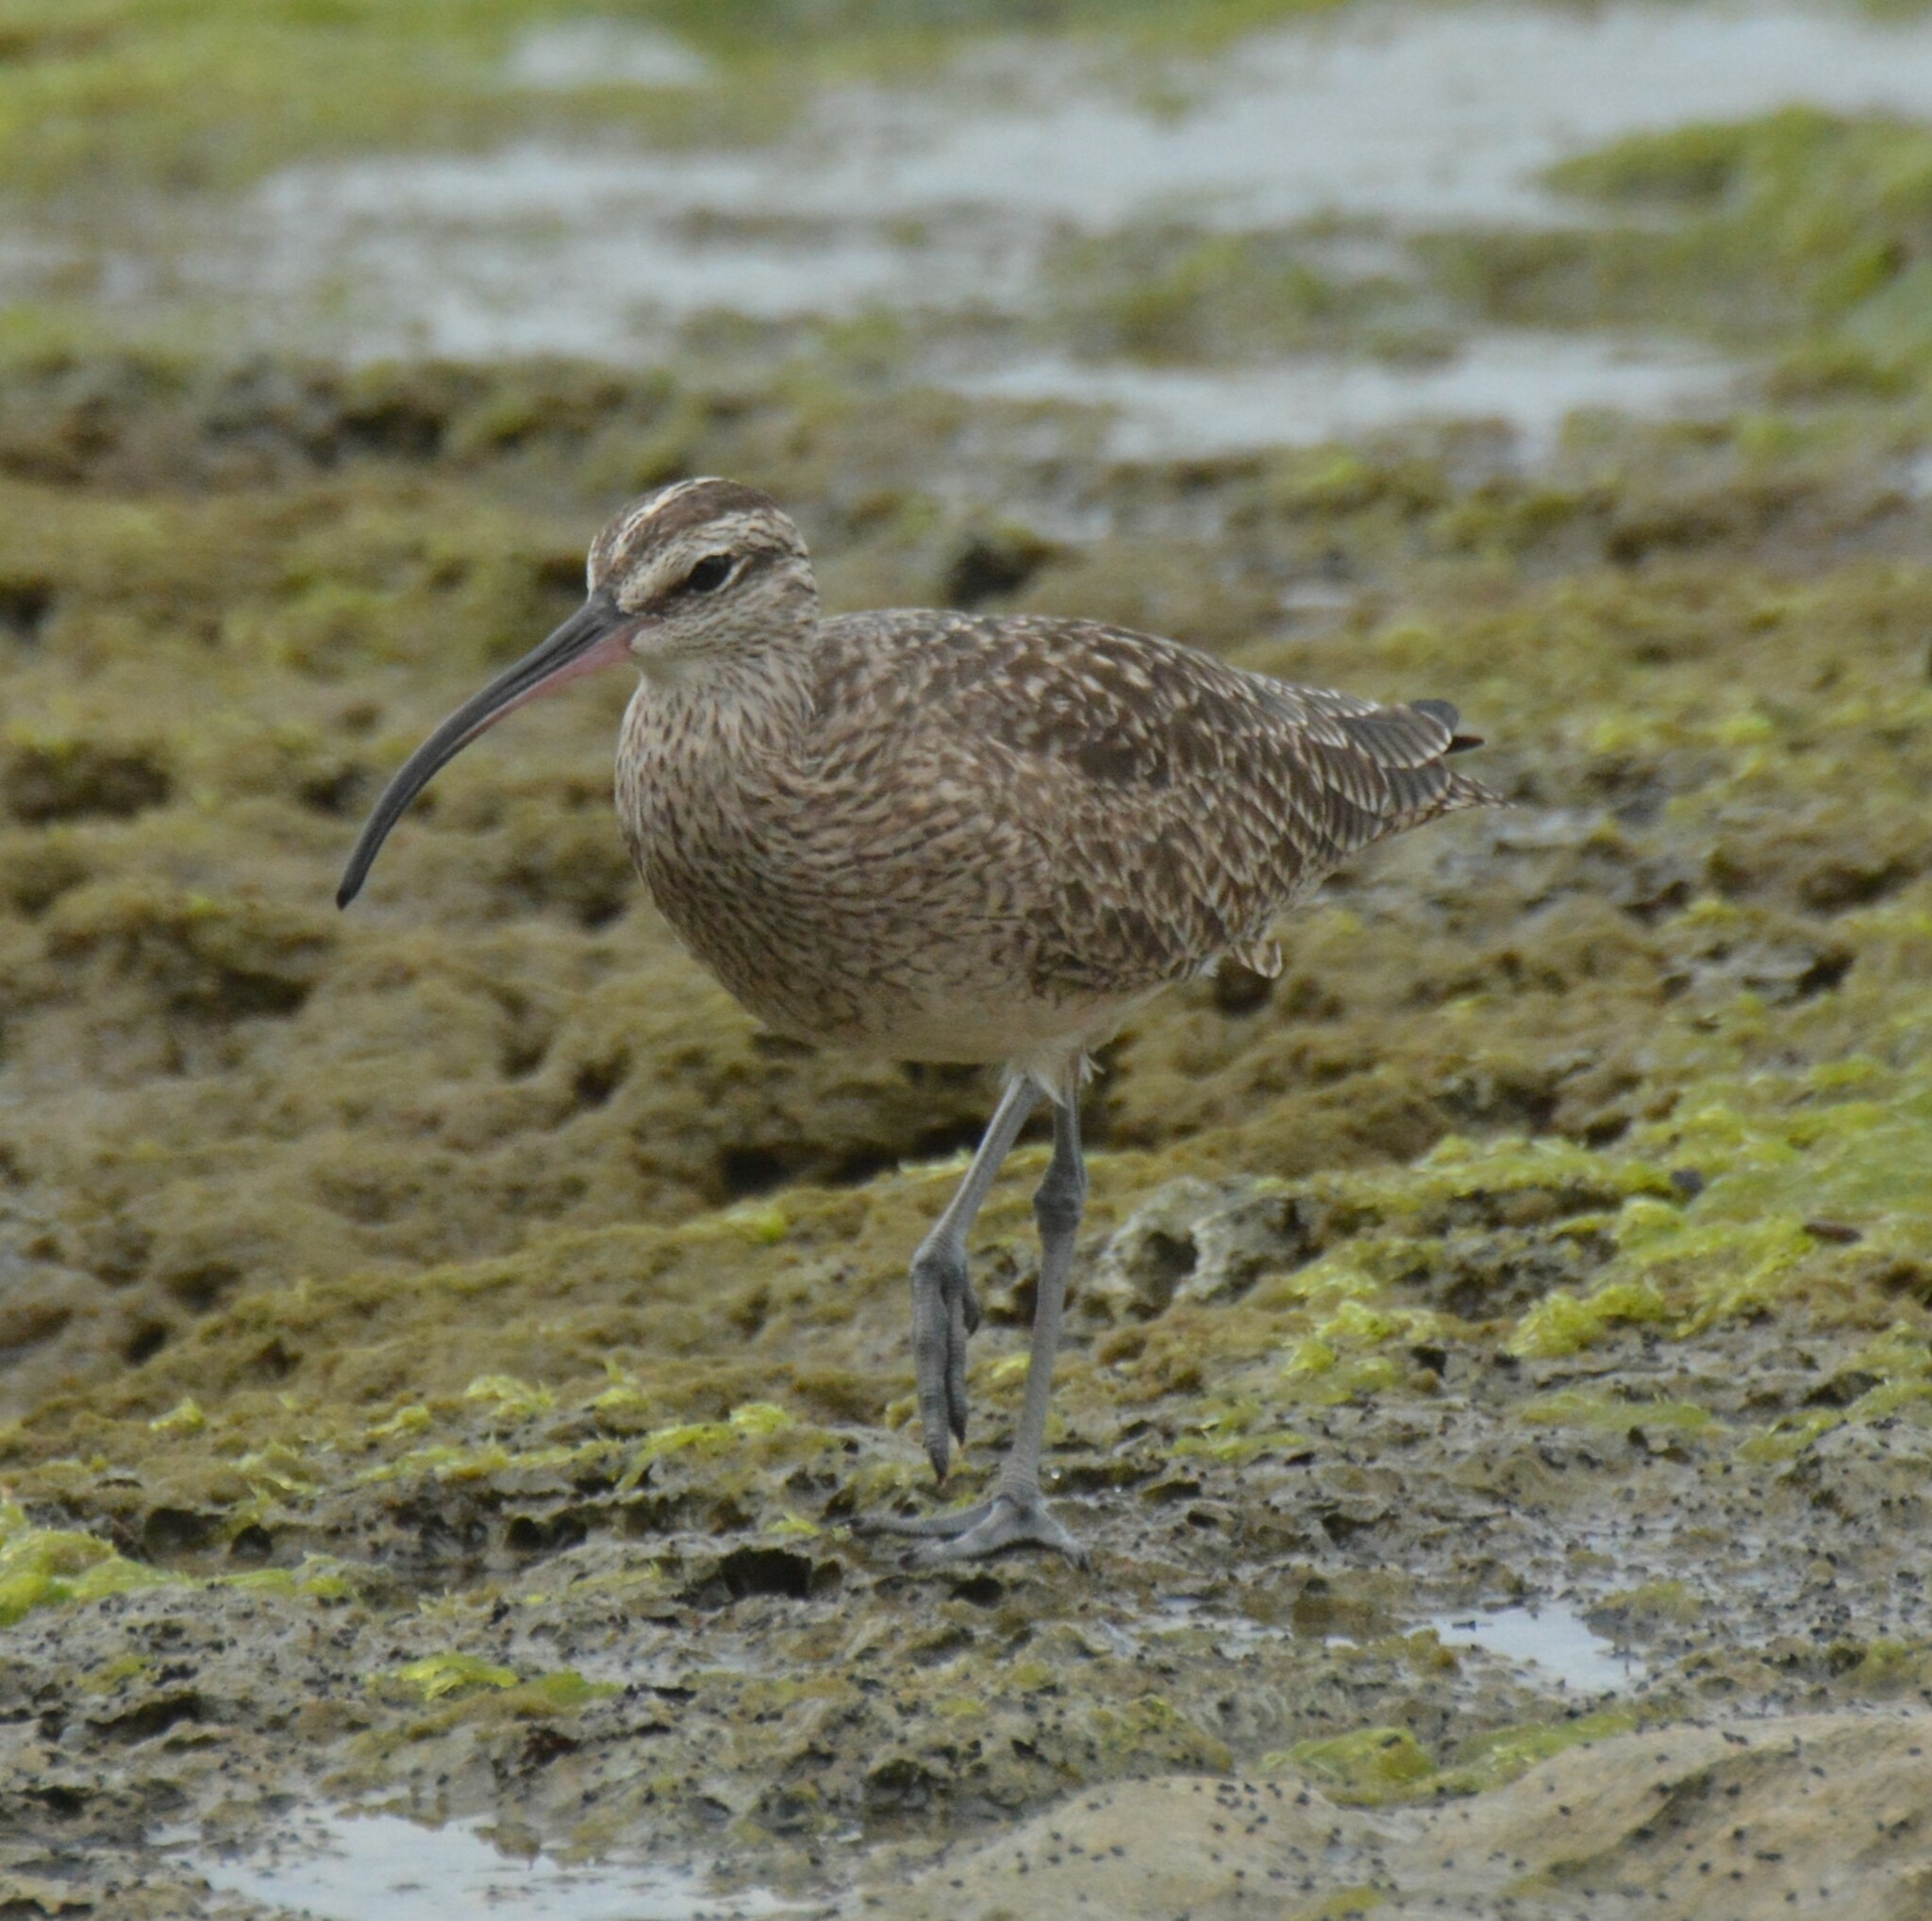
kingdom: Animalia
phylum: Chordata
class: Aves
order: Charadriiformes
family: Scolopacidae
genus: Numenius
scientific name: Numenius phaeopus
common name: Whimbrel
